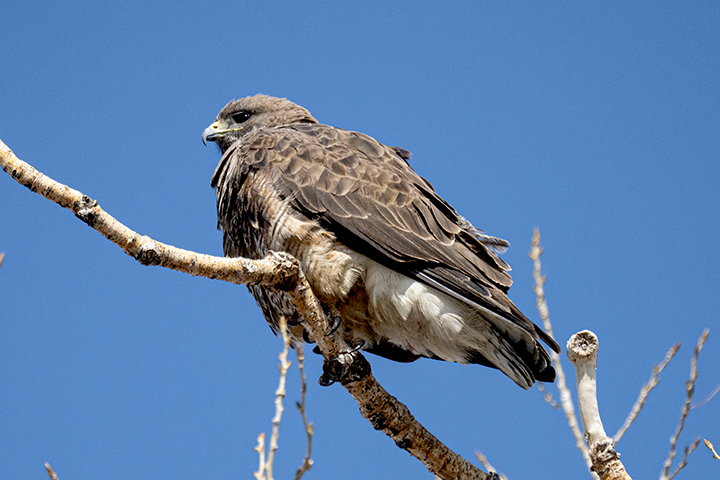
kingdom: Animalia
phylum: Chordata
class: Aves
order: Accipitriformes
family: Accipitridae
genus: Buteo
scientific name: Buteo swainsoni
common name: Swainson's hawk
